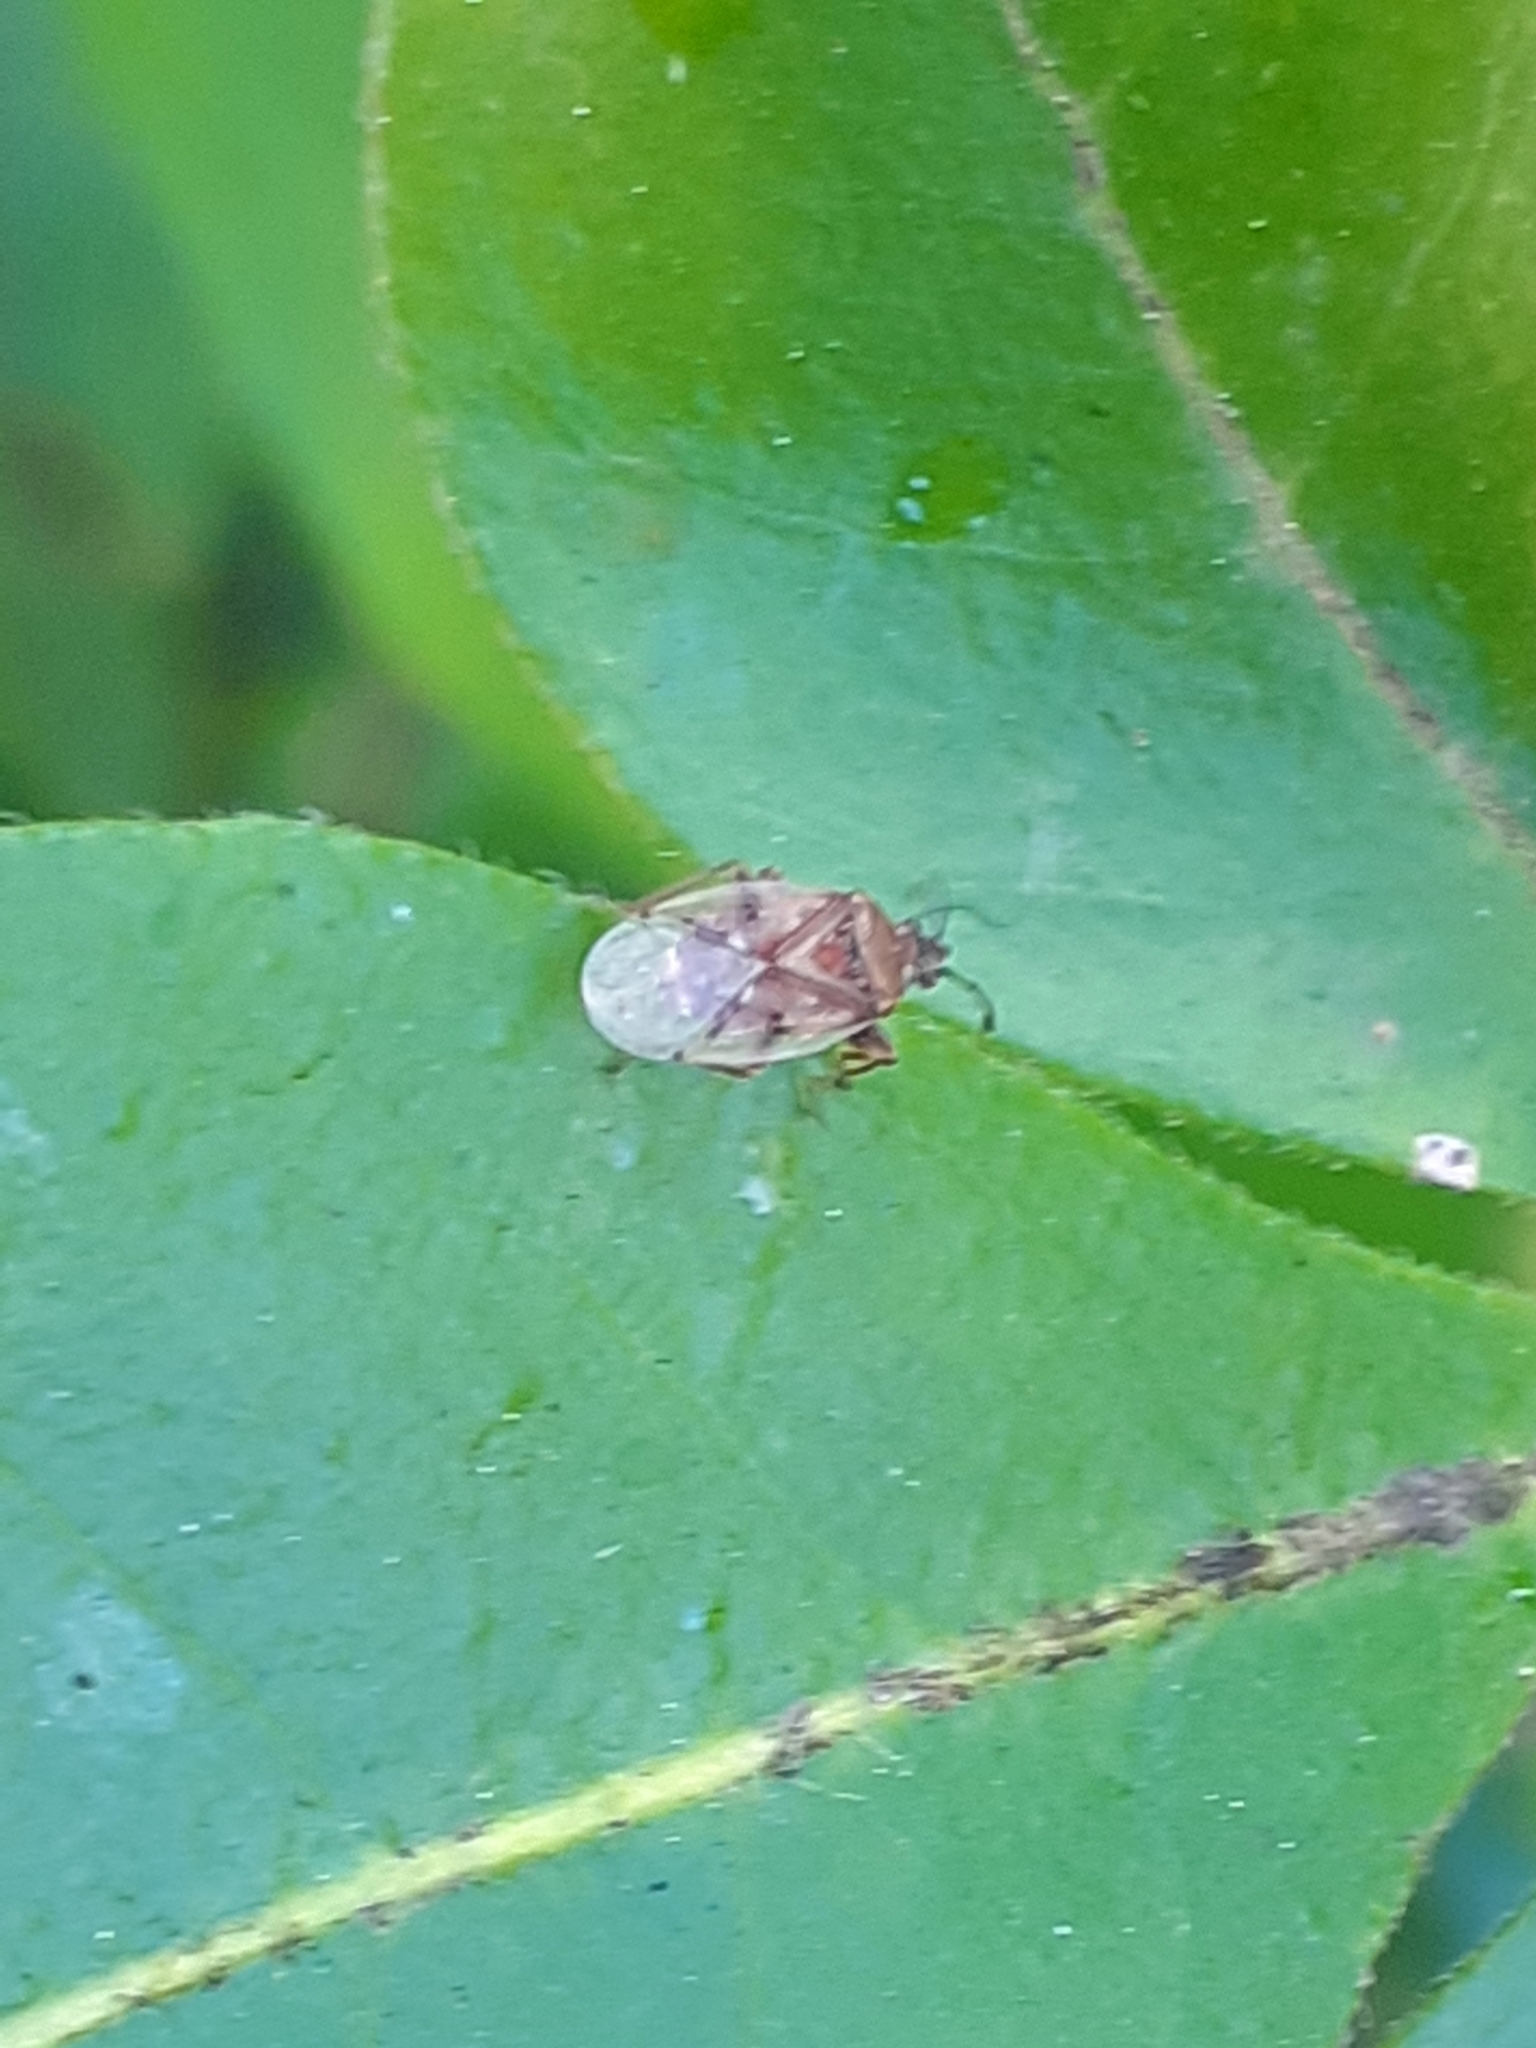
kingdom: Animalia
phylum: Arthropoda
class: Insecta
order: Hemiptera
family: Lygaeidae
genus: Kleidocerys
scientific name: Kleidocerys resedae
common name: Birch catkin bug
